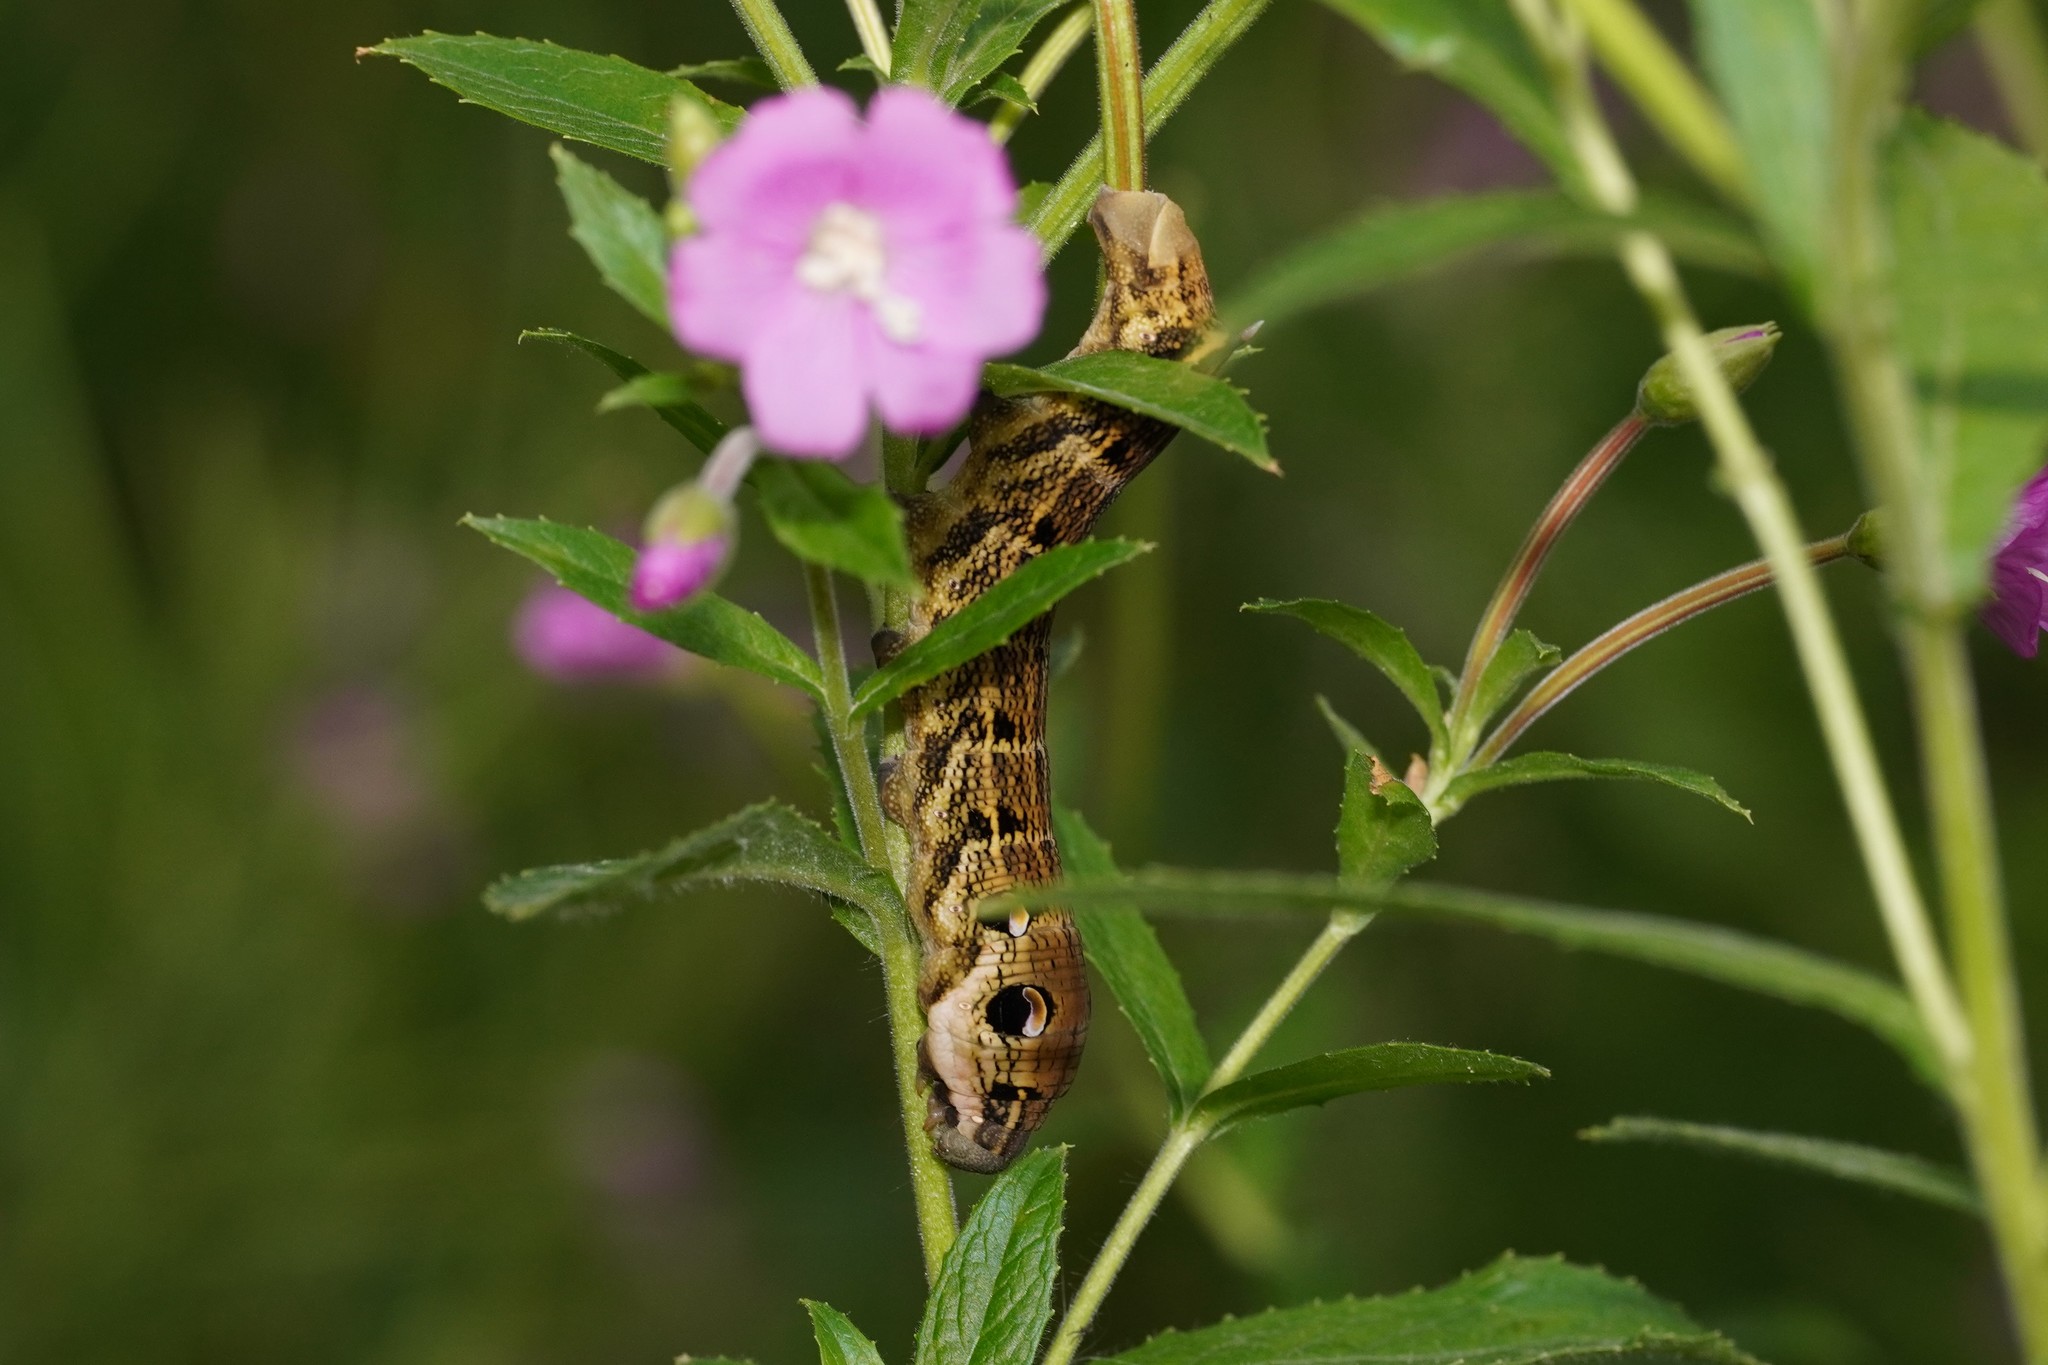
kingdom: Animalia
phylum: Arthropoda
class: Insecta
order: Lepidoptera
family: Sphingidae
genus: Deilephila
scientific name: Deilephila elpenor
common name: Elephant hawk-moth
